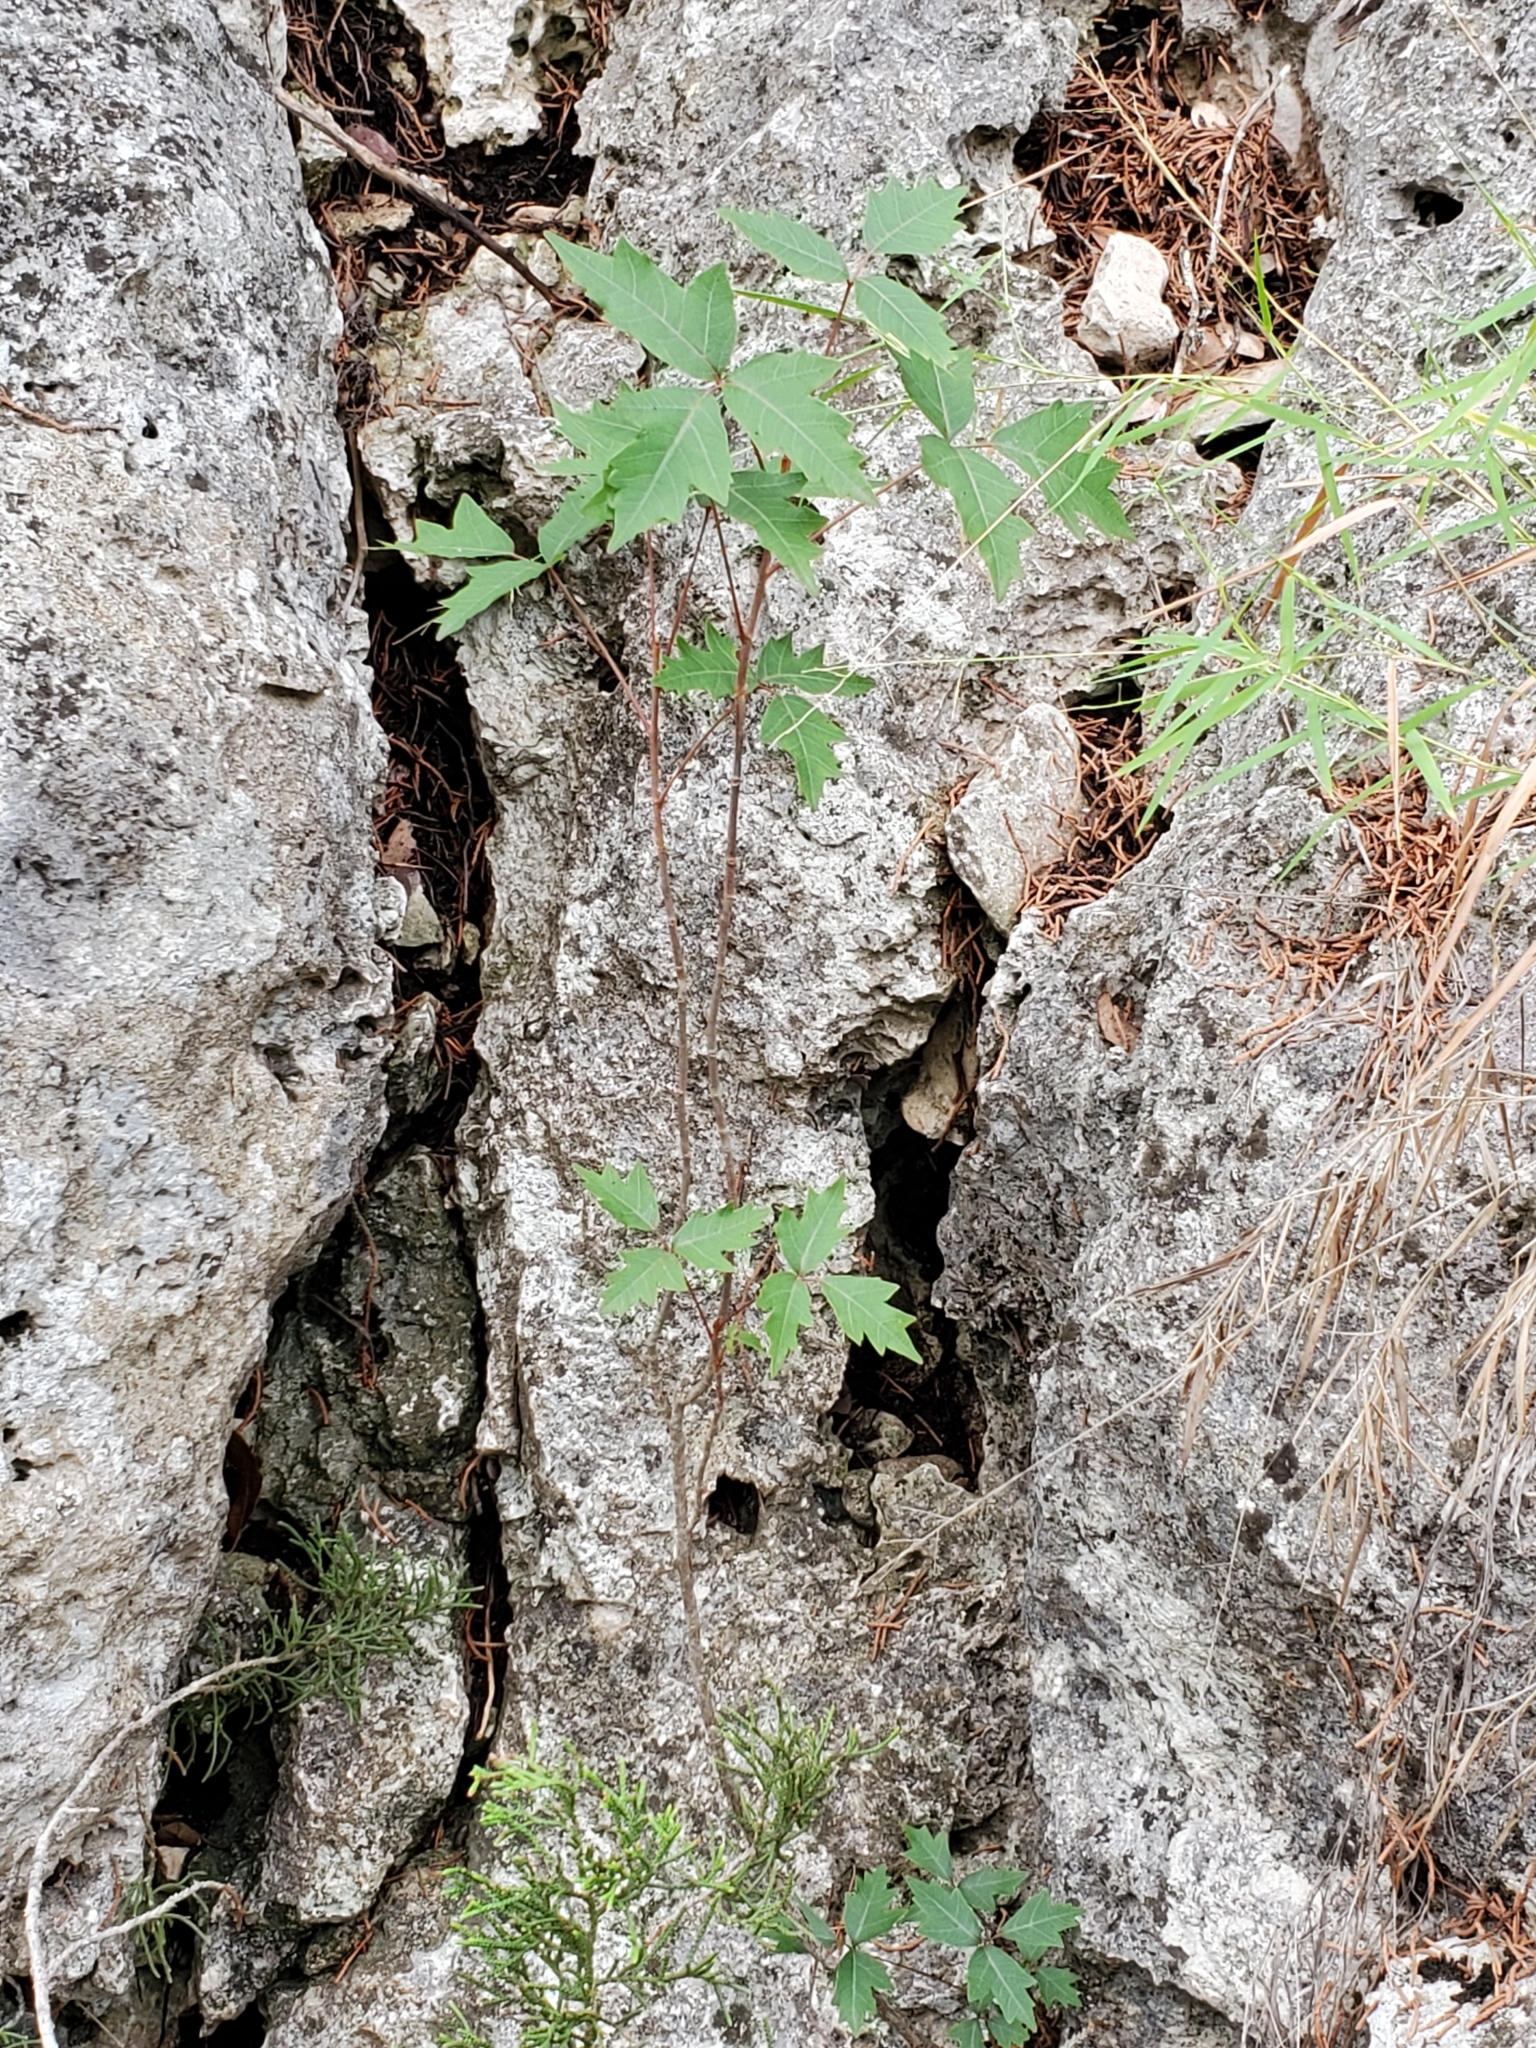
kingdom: Plantae
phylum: Tracheophyta
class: Magnoliopsida
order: Sapindales
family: Anacardiaceae
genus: Toxicodendron
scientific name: Toxicodendron radicans
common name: Poison ivy
